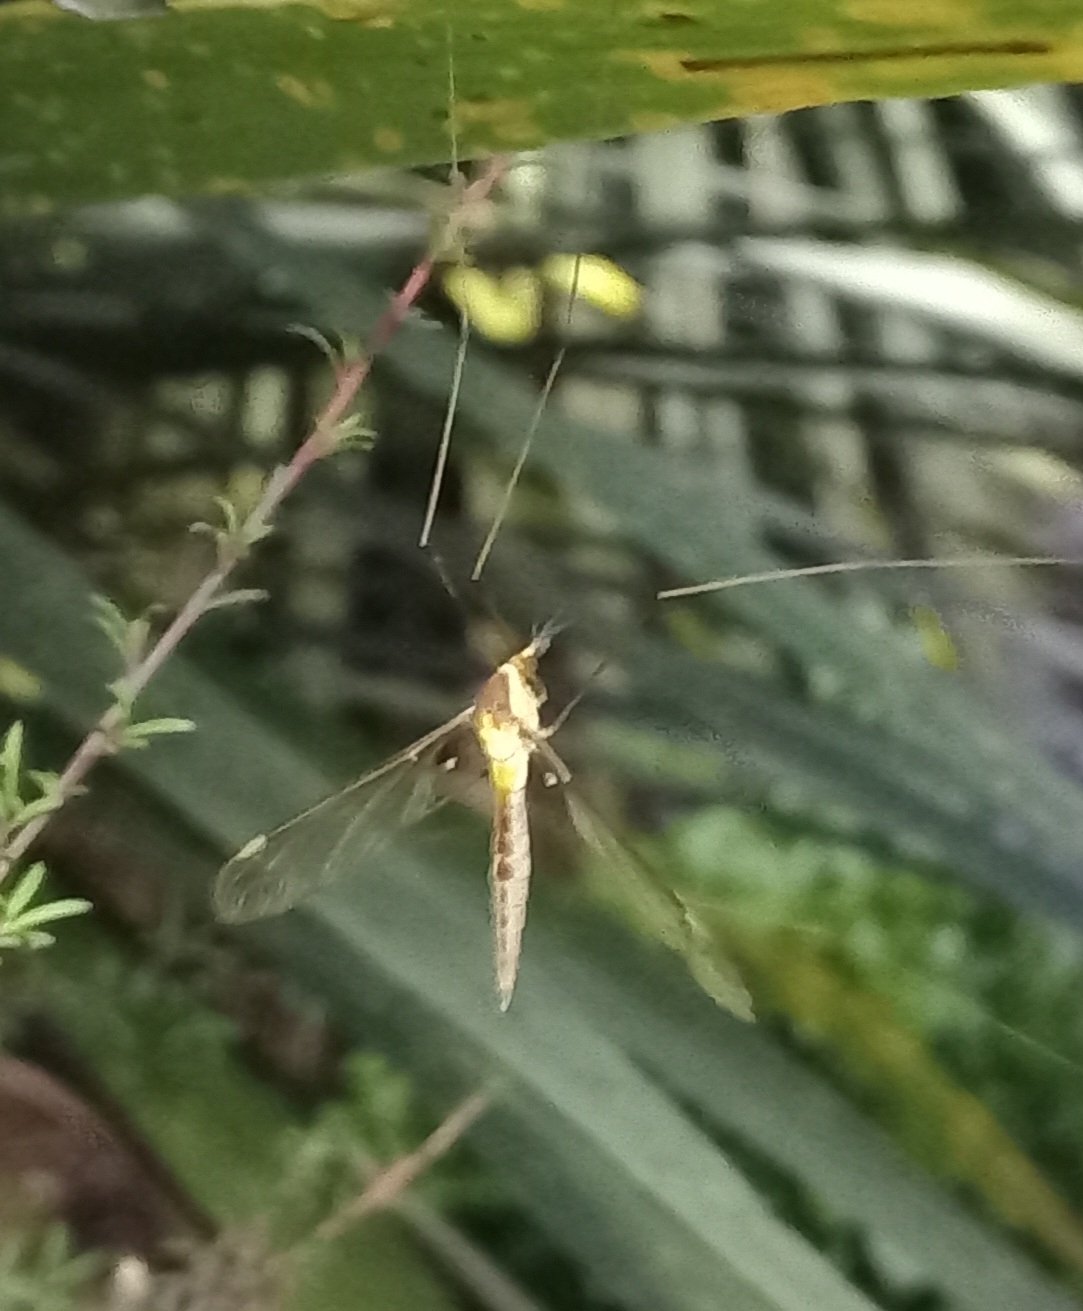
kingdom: Animalia
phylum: Arthropoda
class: Insecta
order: Diptera
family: Tipulidae
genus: Leptotarsus
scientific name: Leptotarsus albistigma
